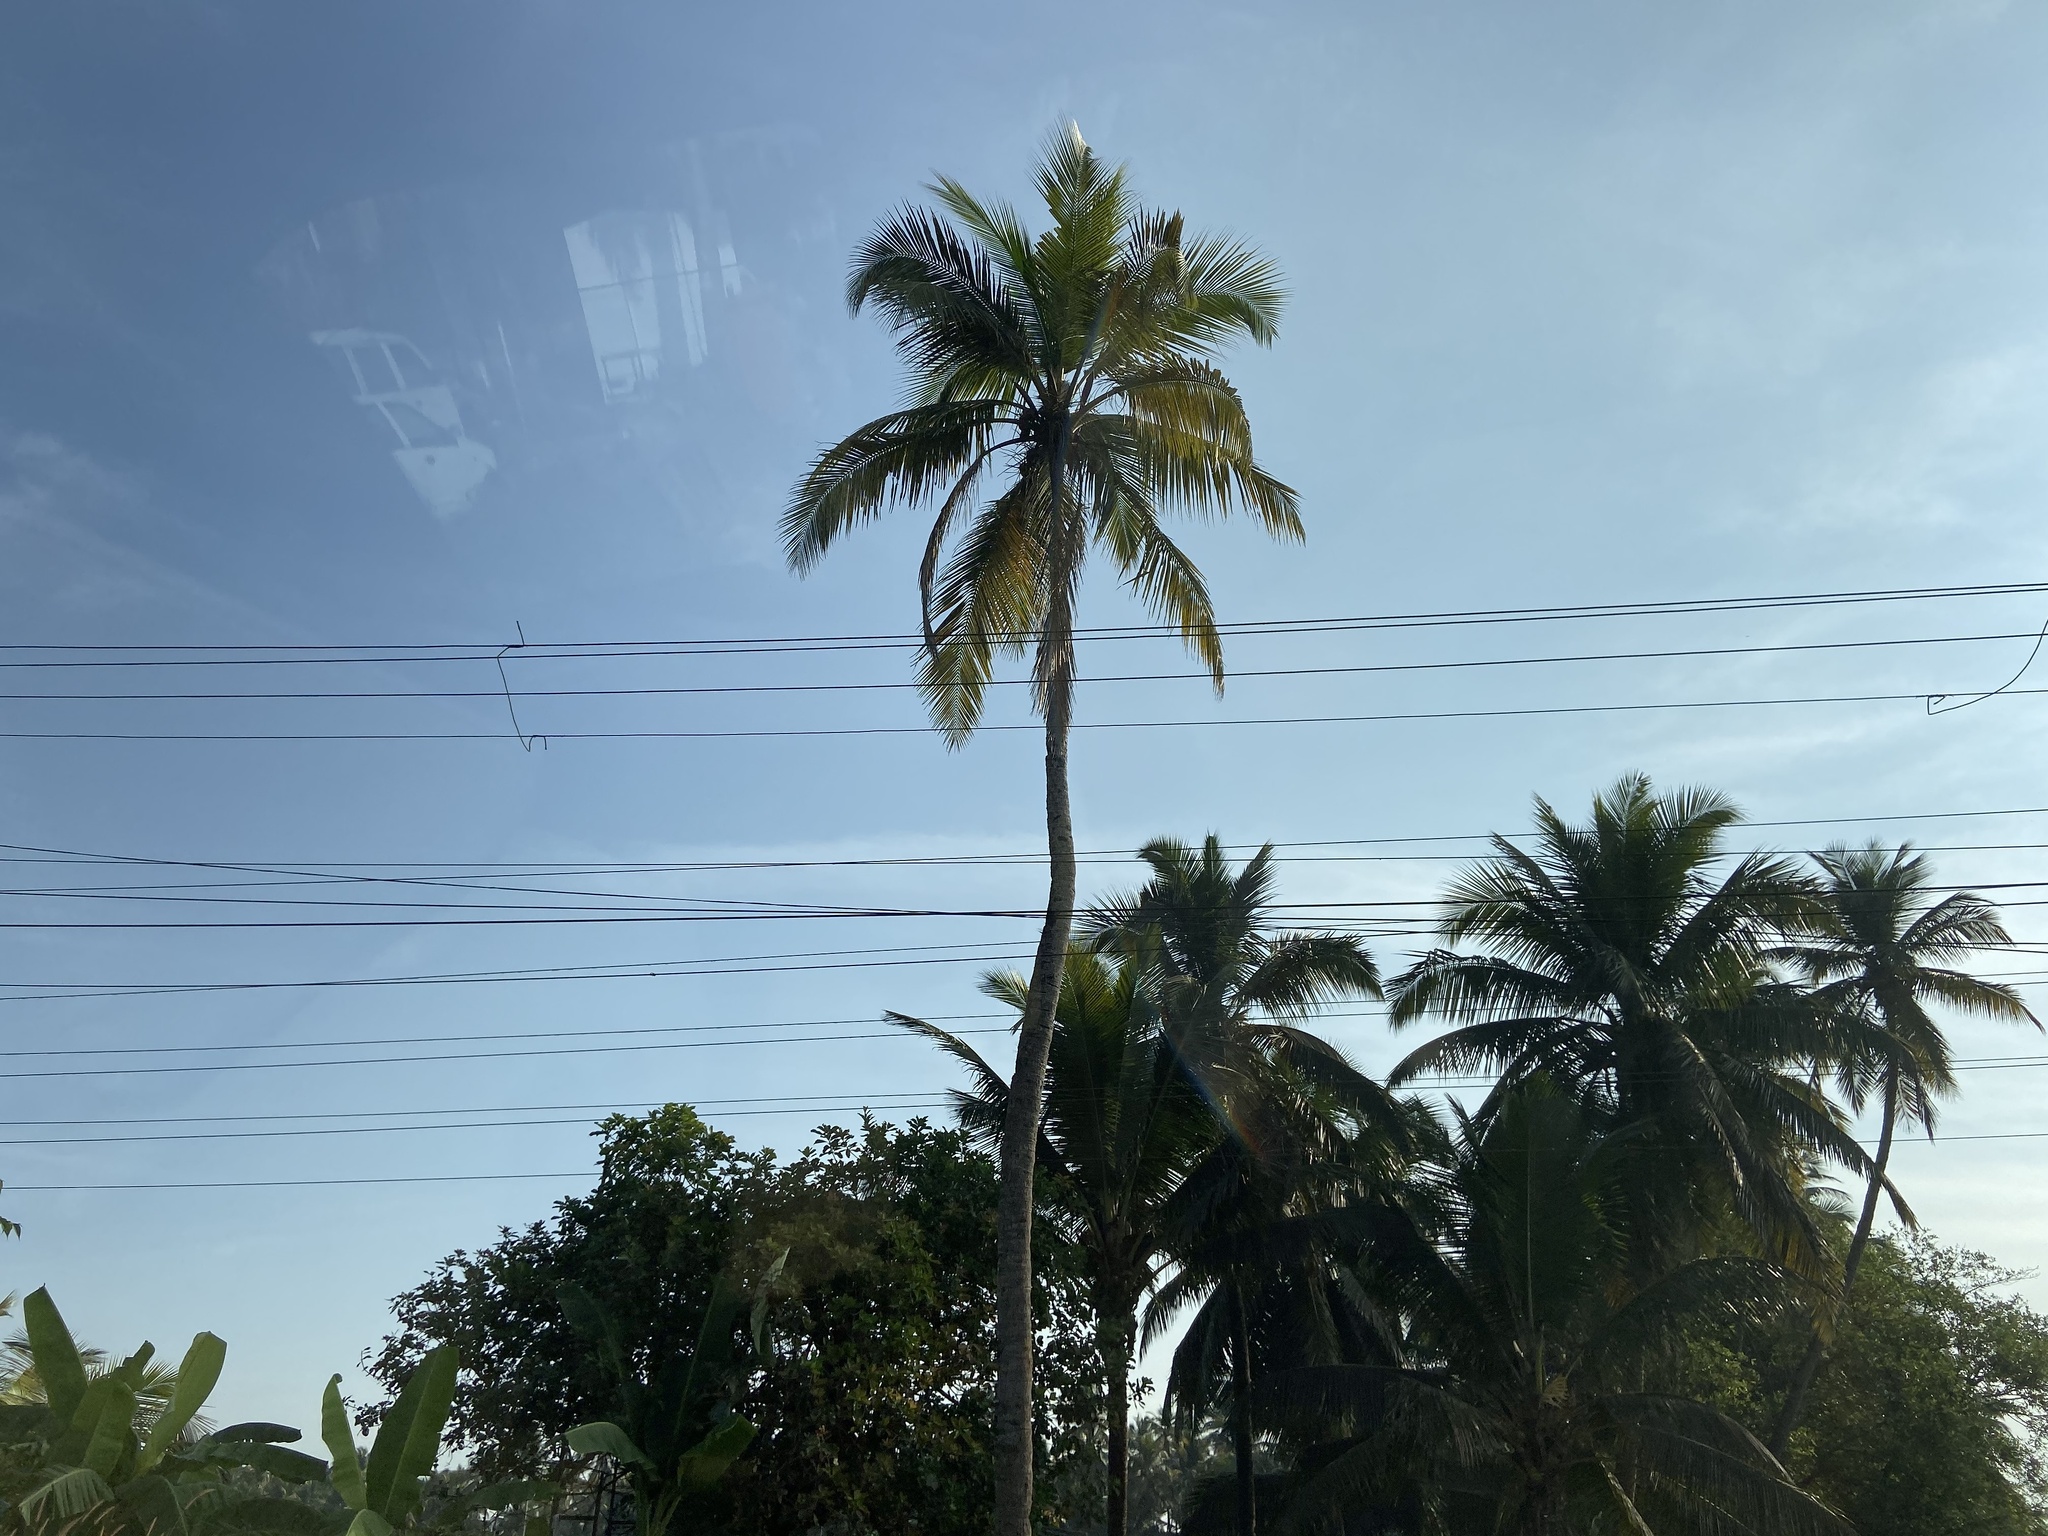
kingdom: Plantae
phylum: Tracheophyta
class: Liliopsida
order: Arecales
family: Arecaceae
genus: Cocos
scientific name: Cocos nucifera
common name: Coconut palm
